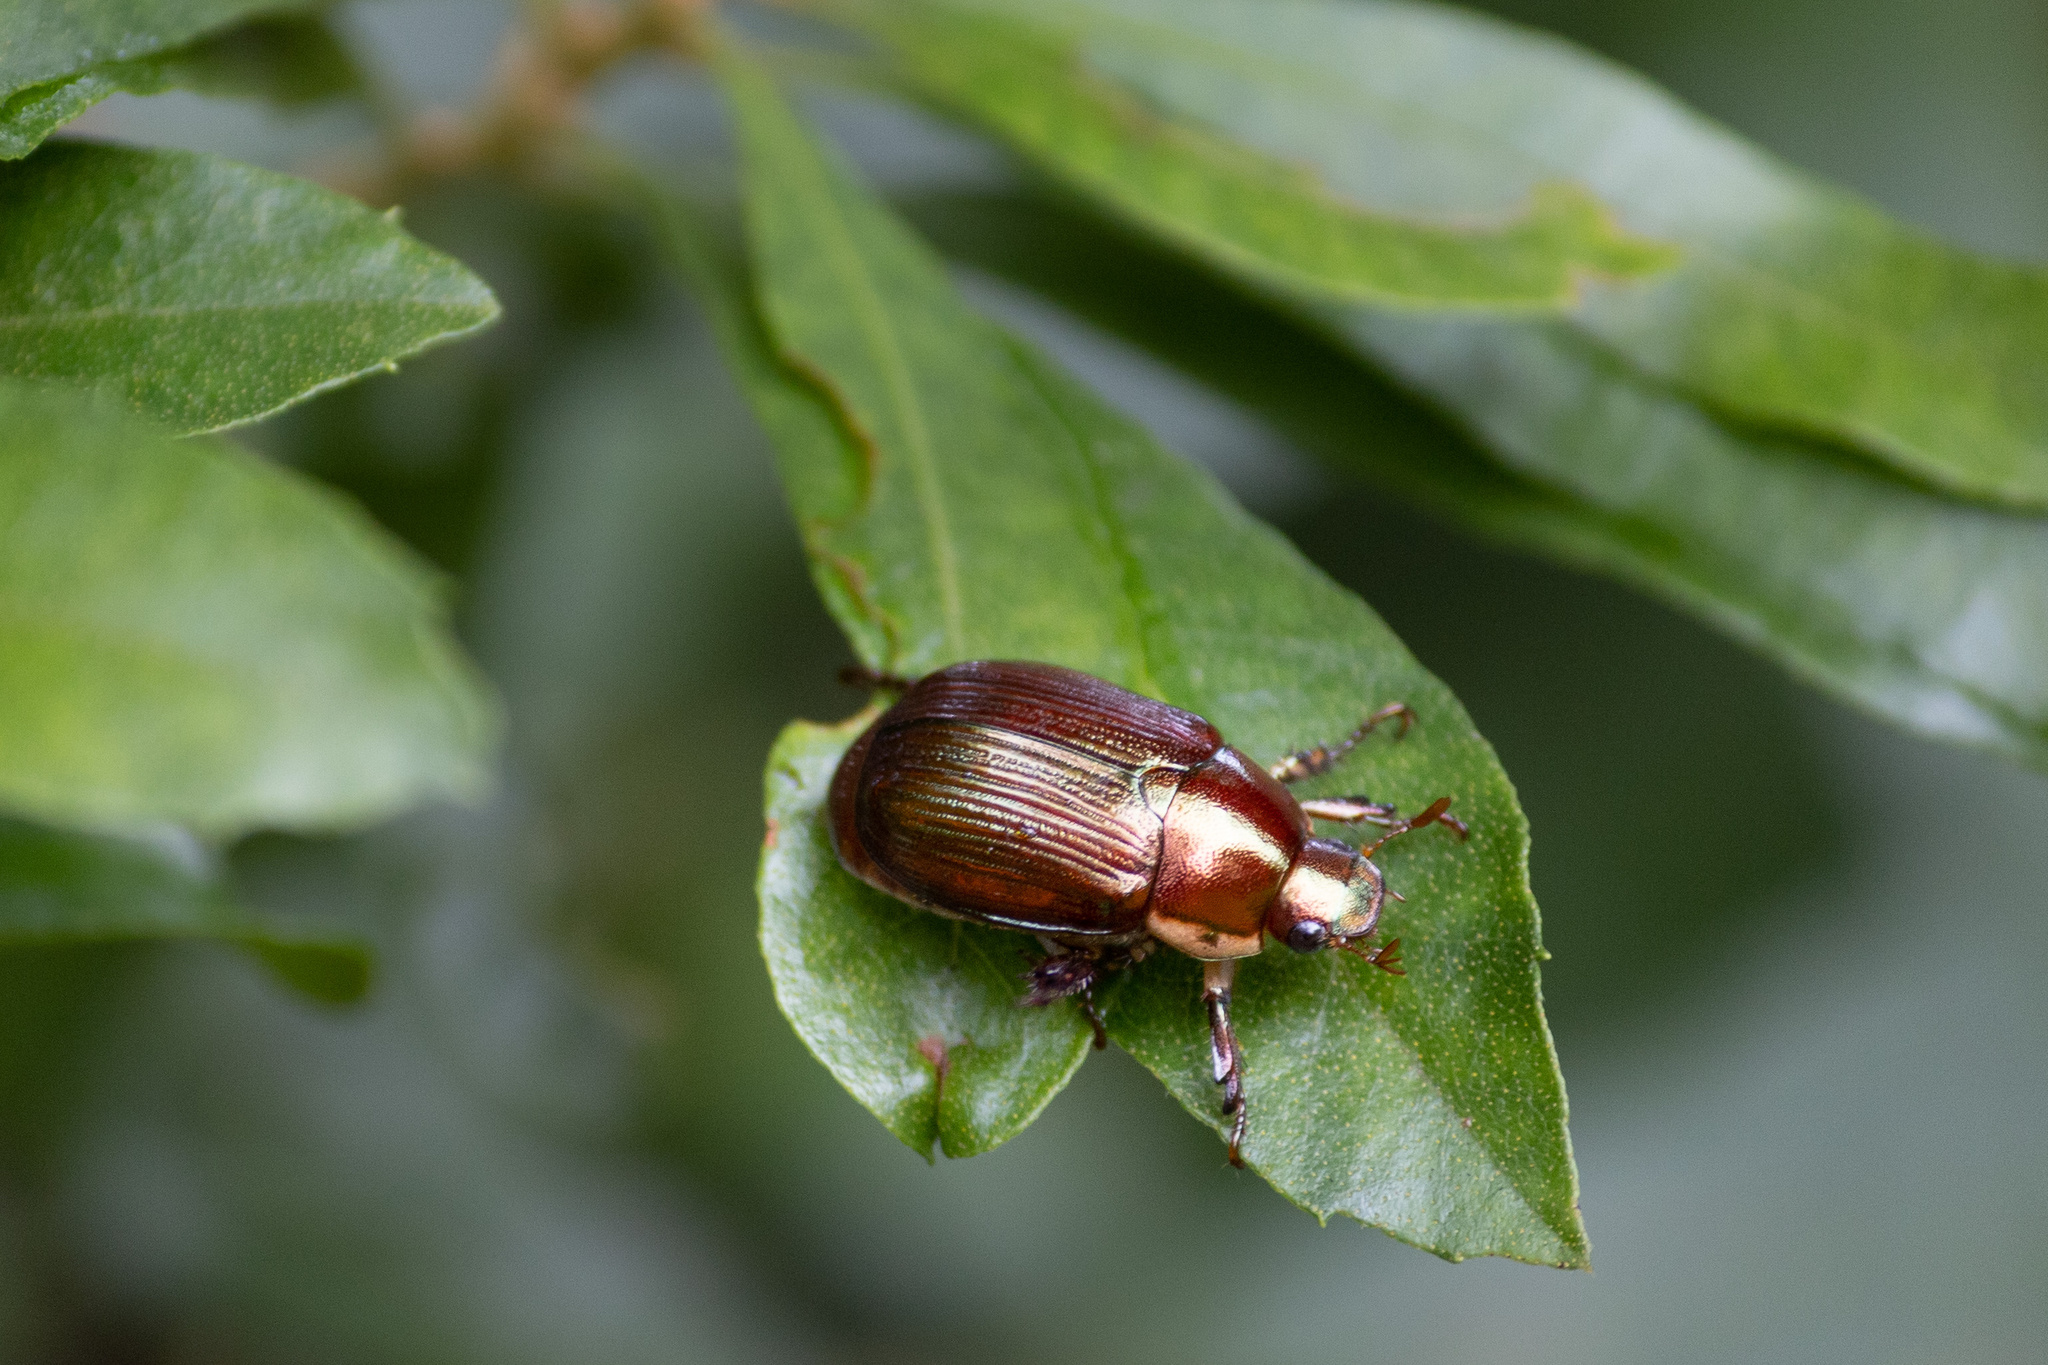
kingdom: Animalia
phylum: Arthropoda
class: Insecta
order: Coleoptera
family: Scarabaeidae
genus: Callistethus
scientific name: Callistethus marginatus
